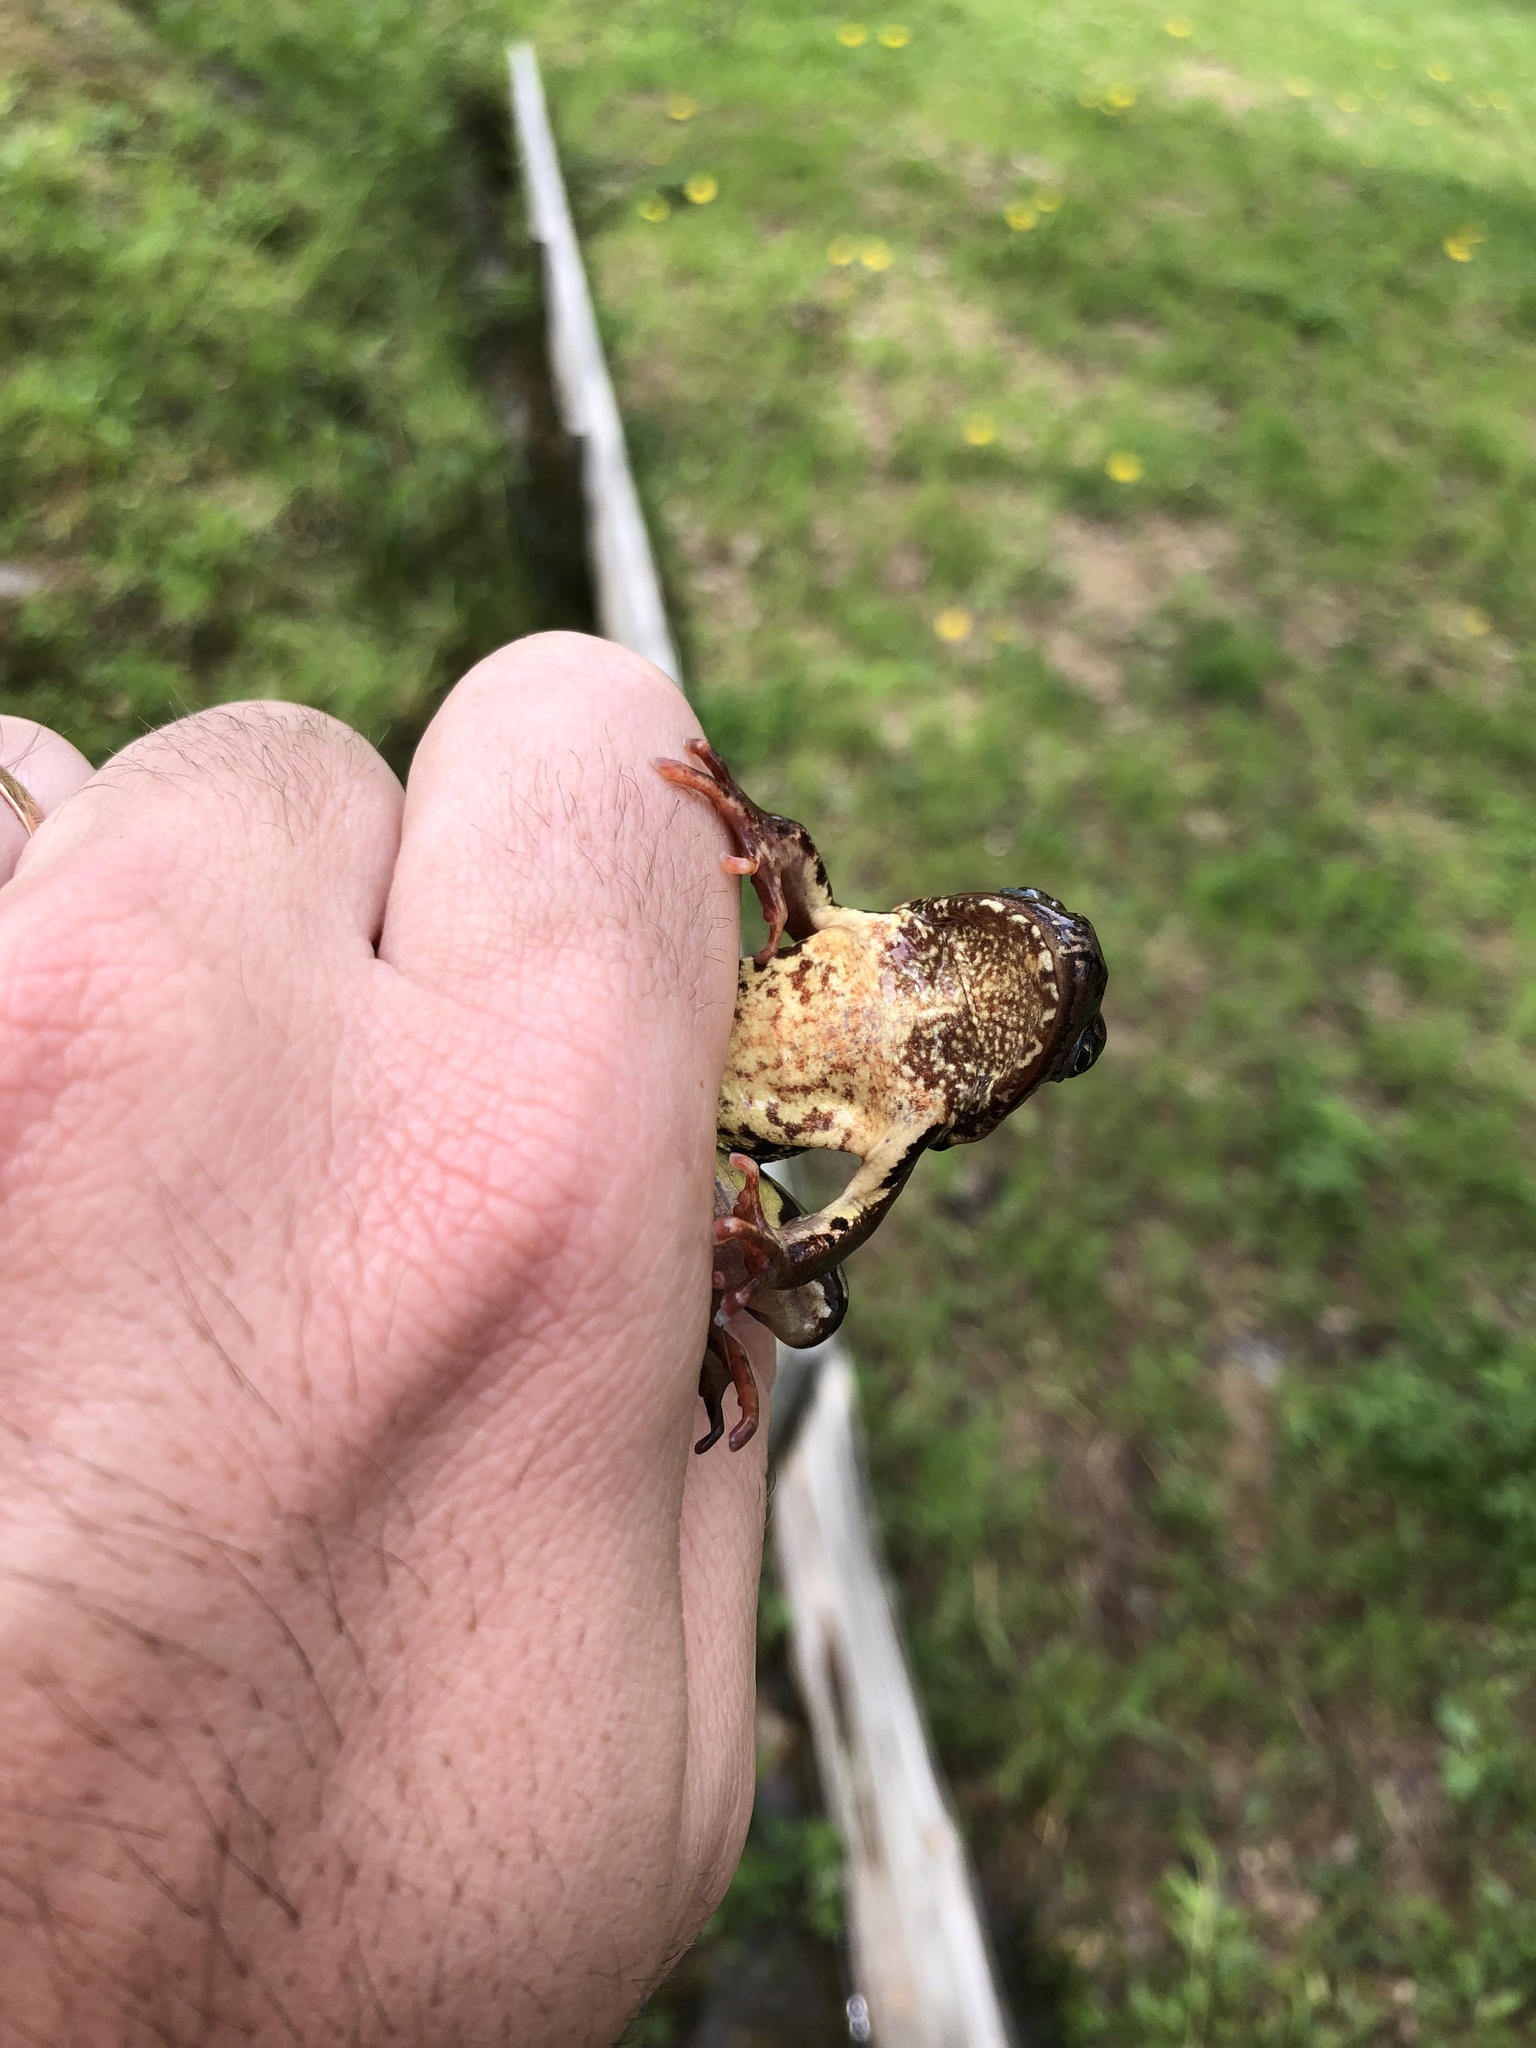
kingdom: Animalia
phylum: Chordata
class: Amphibia
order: Anura
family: Ranidae
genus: Rana
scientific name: Rana temporaria
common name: Common frog
